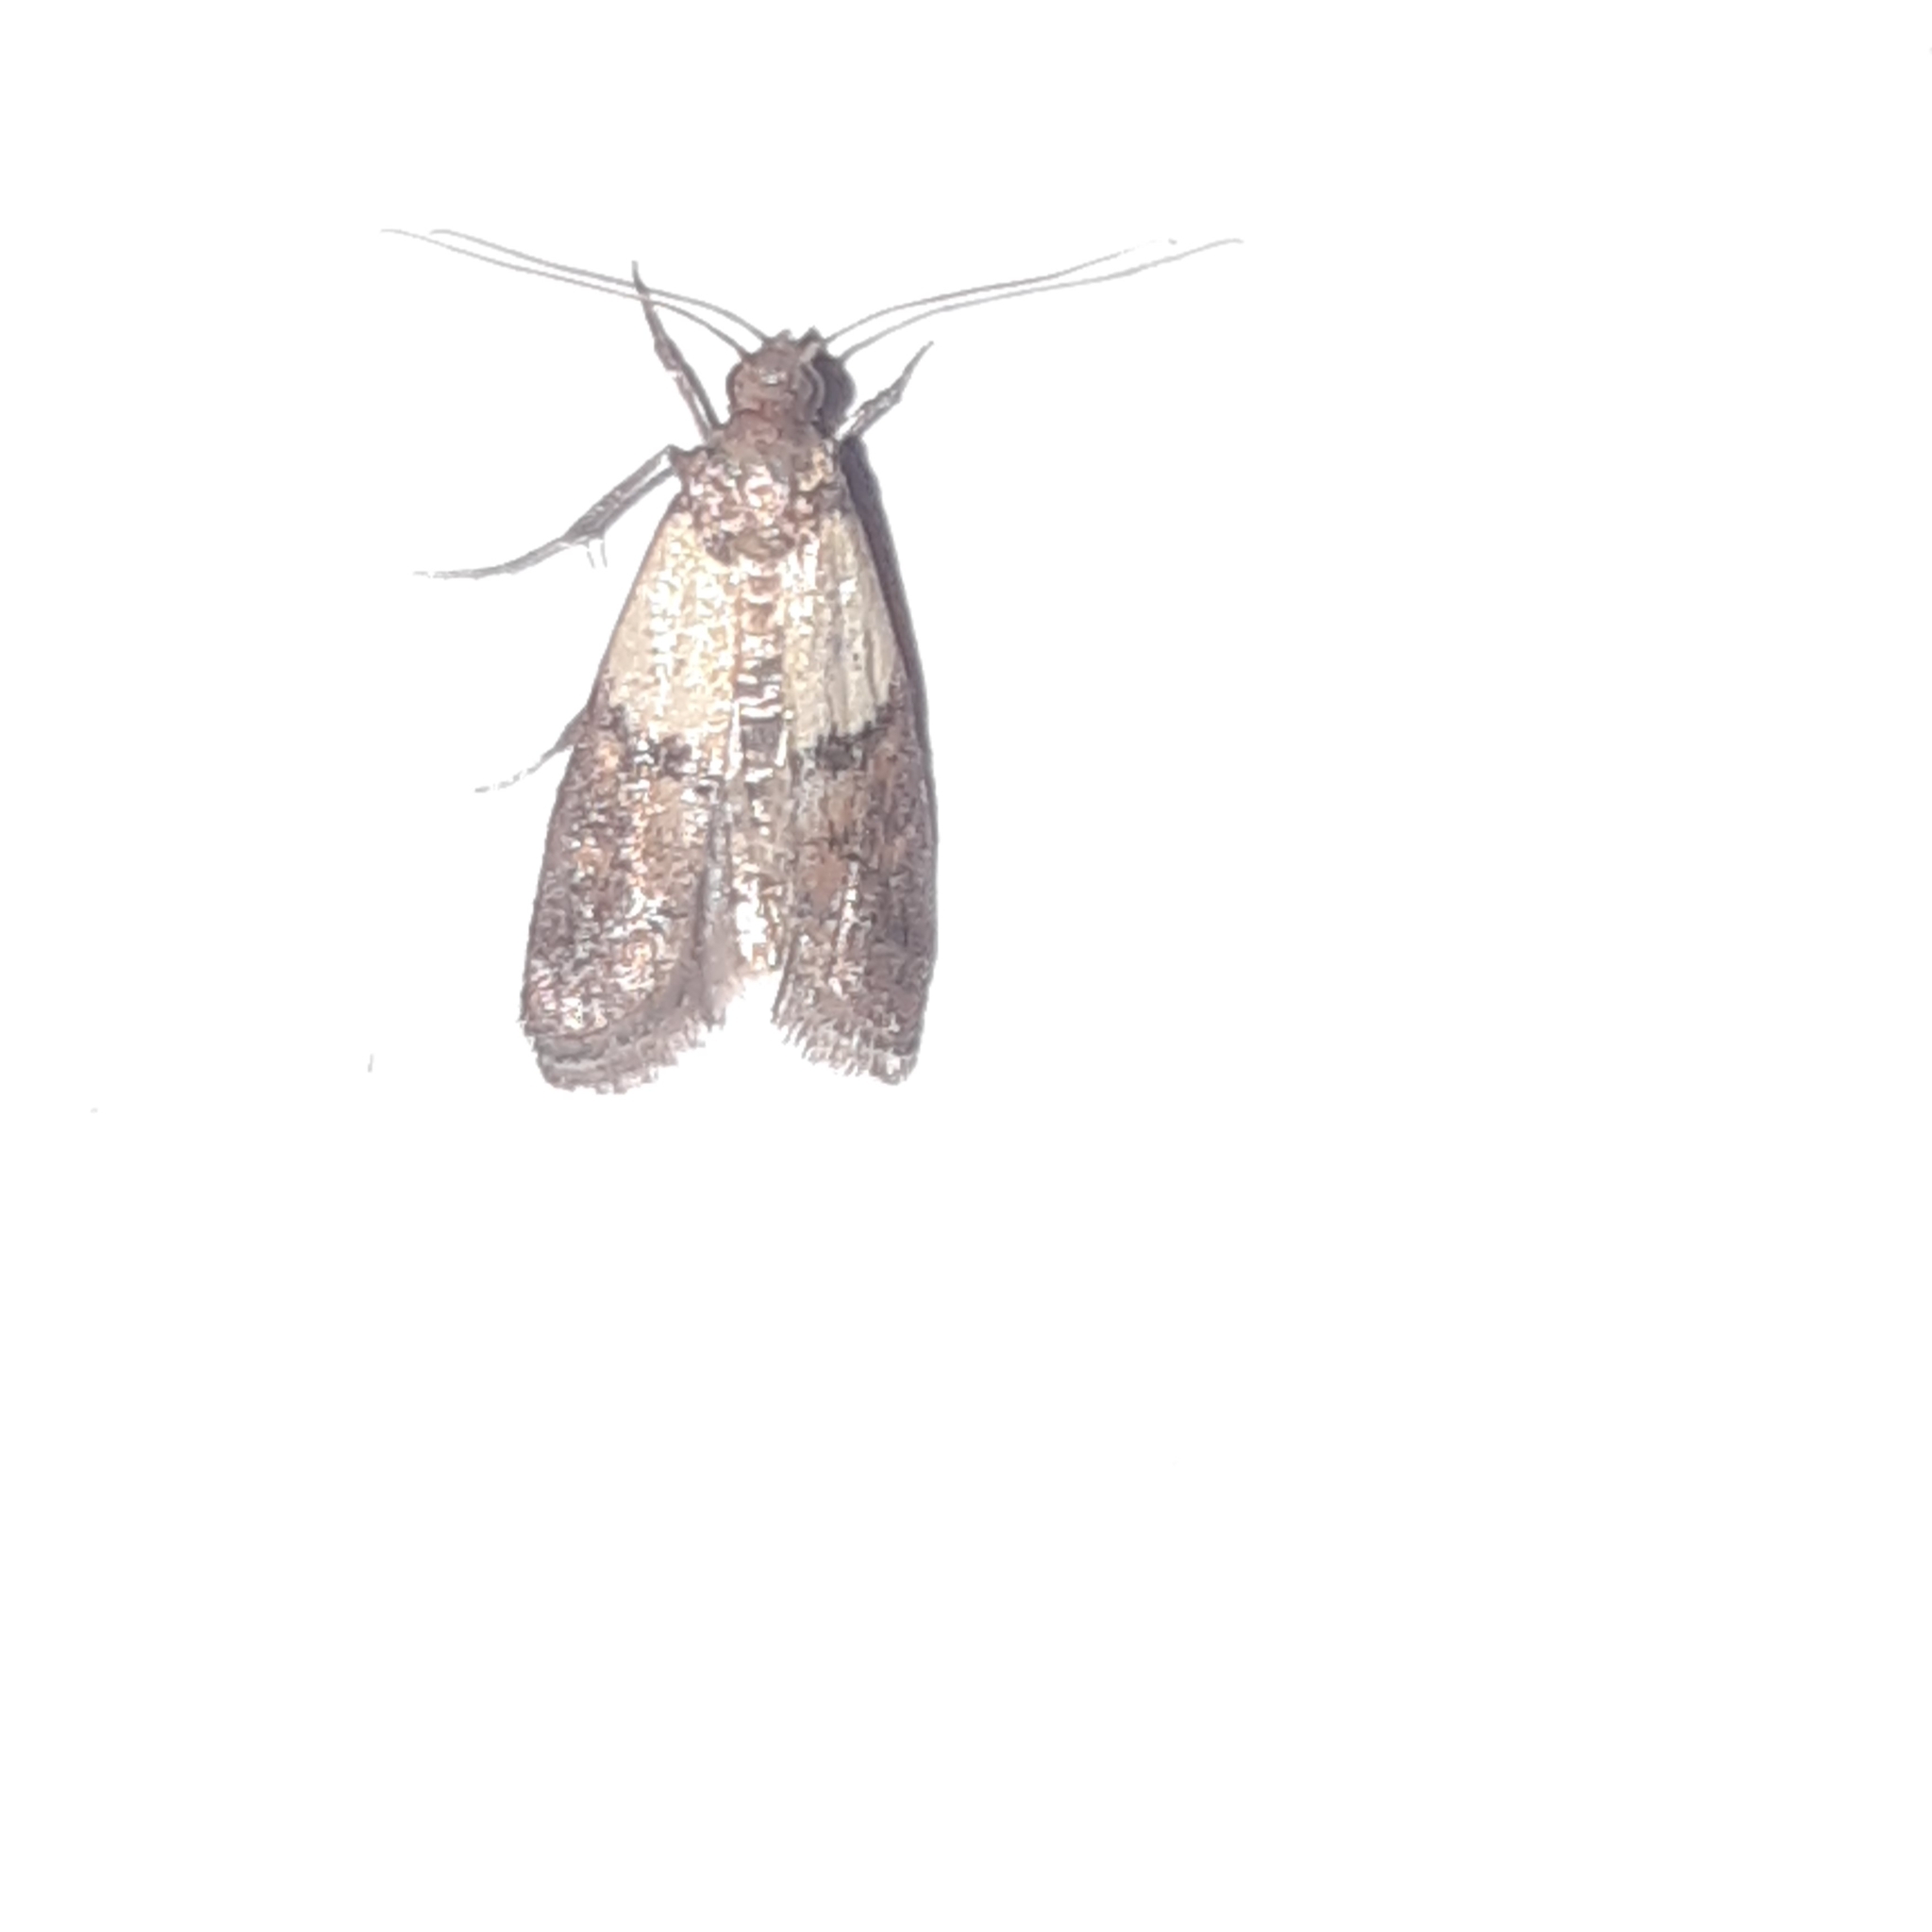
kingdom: Animalia
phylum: Arthropoda
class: Insecta
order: Lepidoptera
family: Pyralidae
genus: Plodia
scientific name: Plodia interpunctella
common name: Indian meal moth
